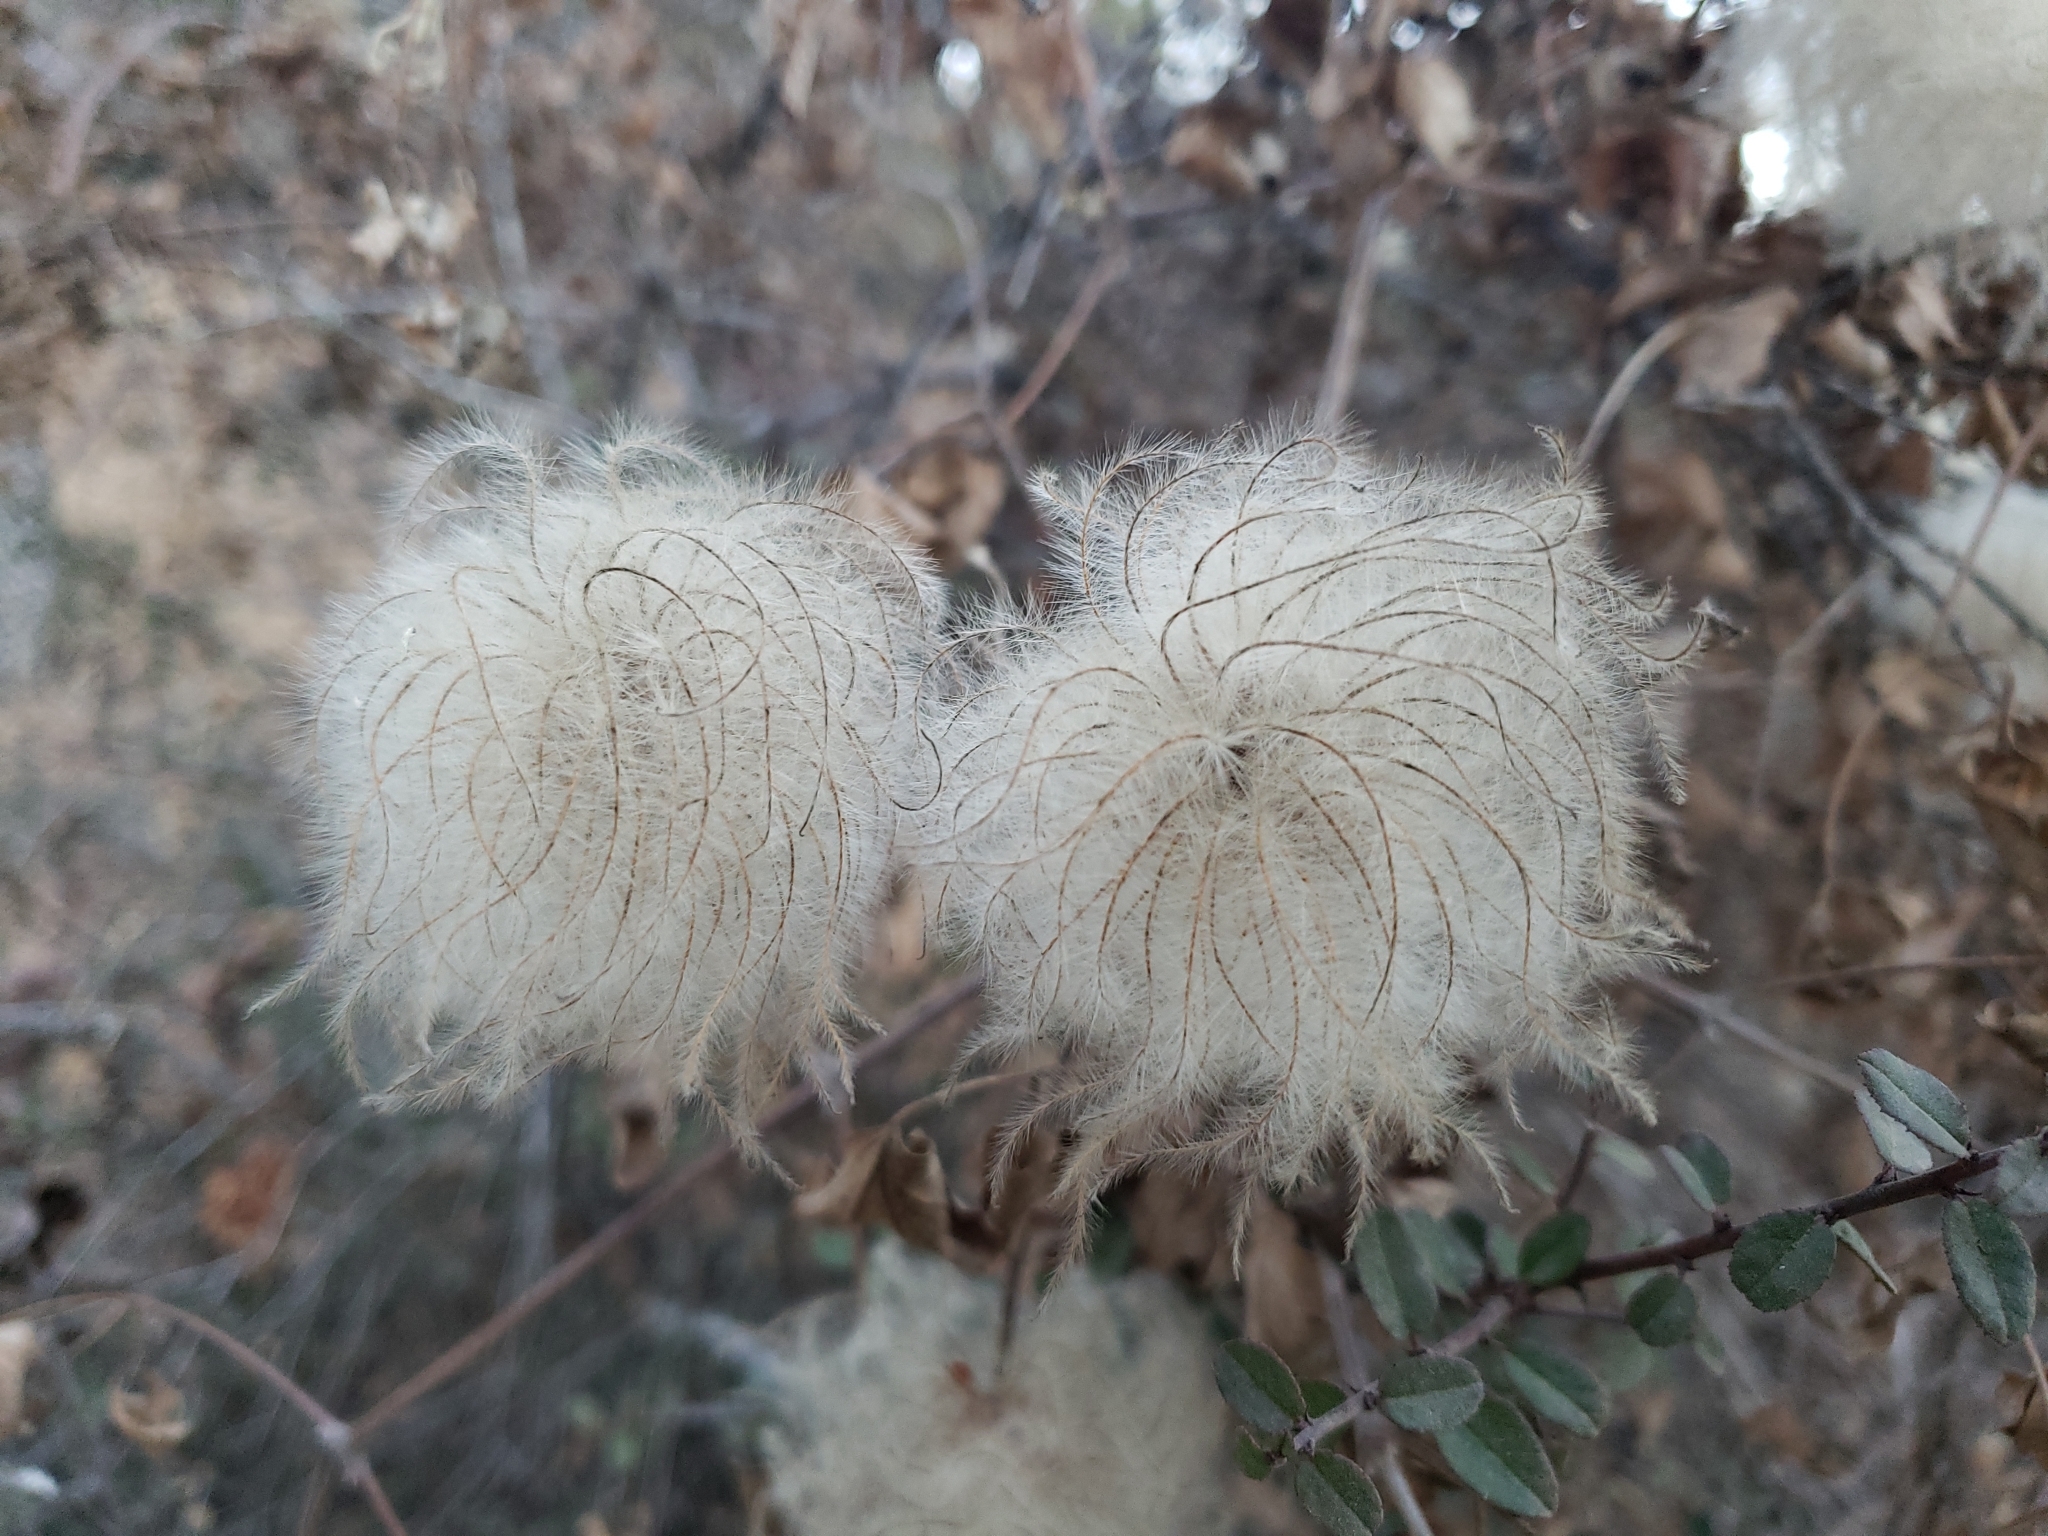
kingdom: Plantae
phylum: Tracheophyta
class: Magnoliopsida
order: Ranunculales
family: Ranunculaceae
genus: Clematis
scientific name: Clematis lasiantha
